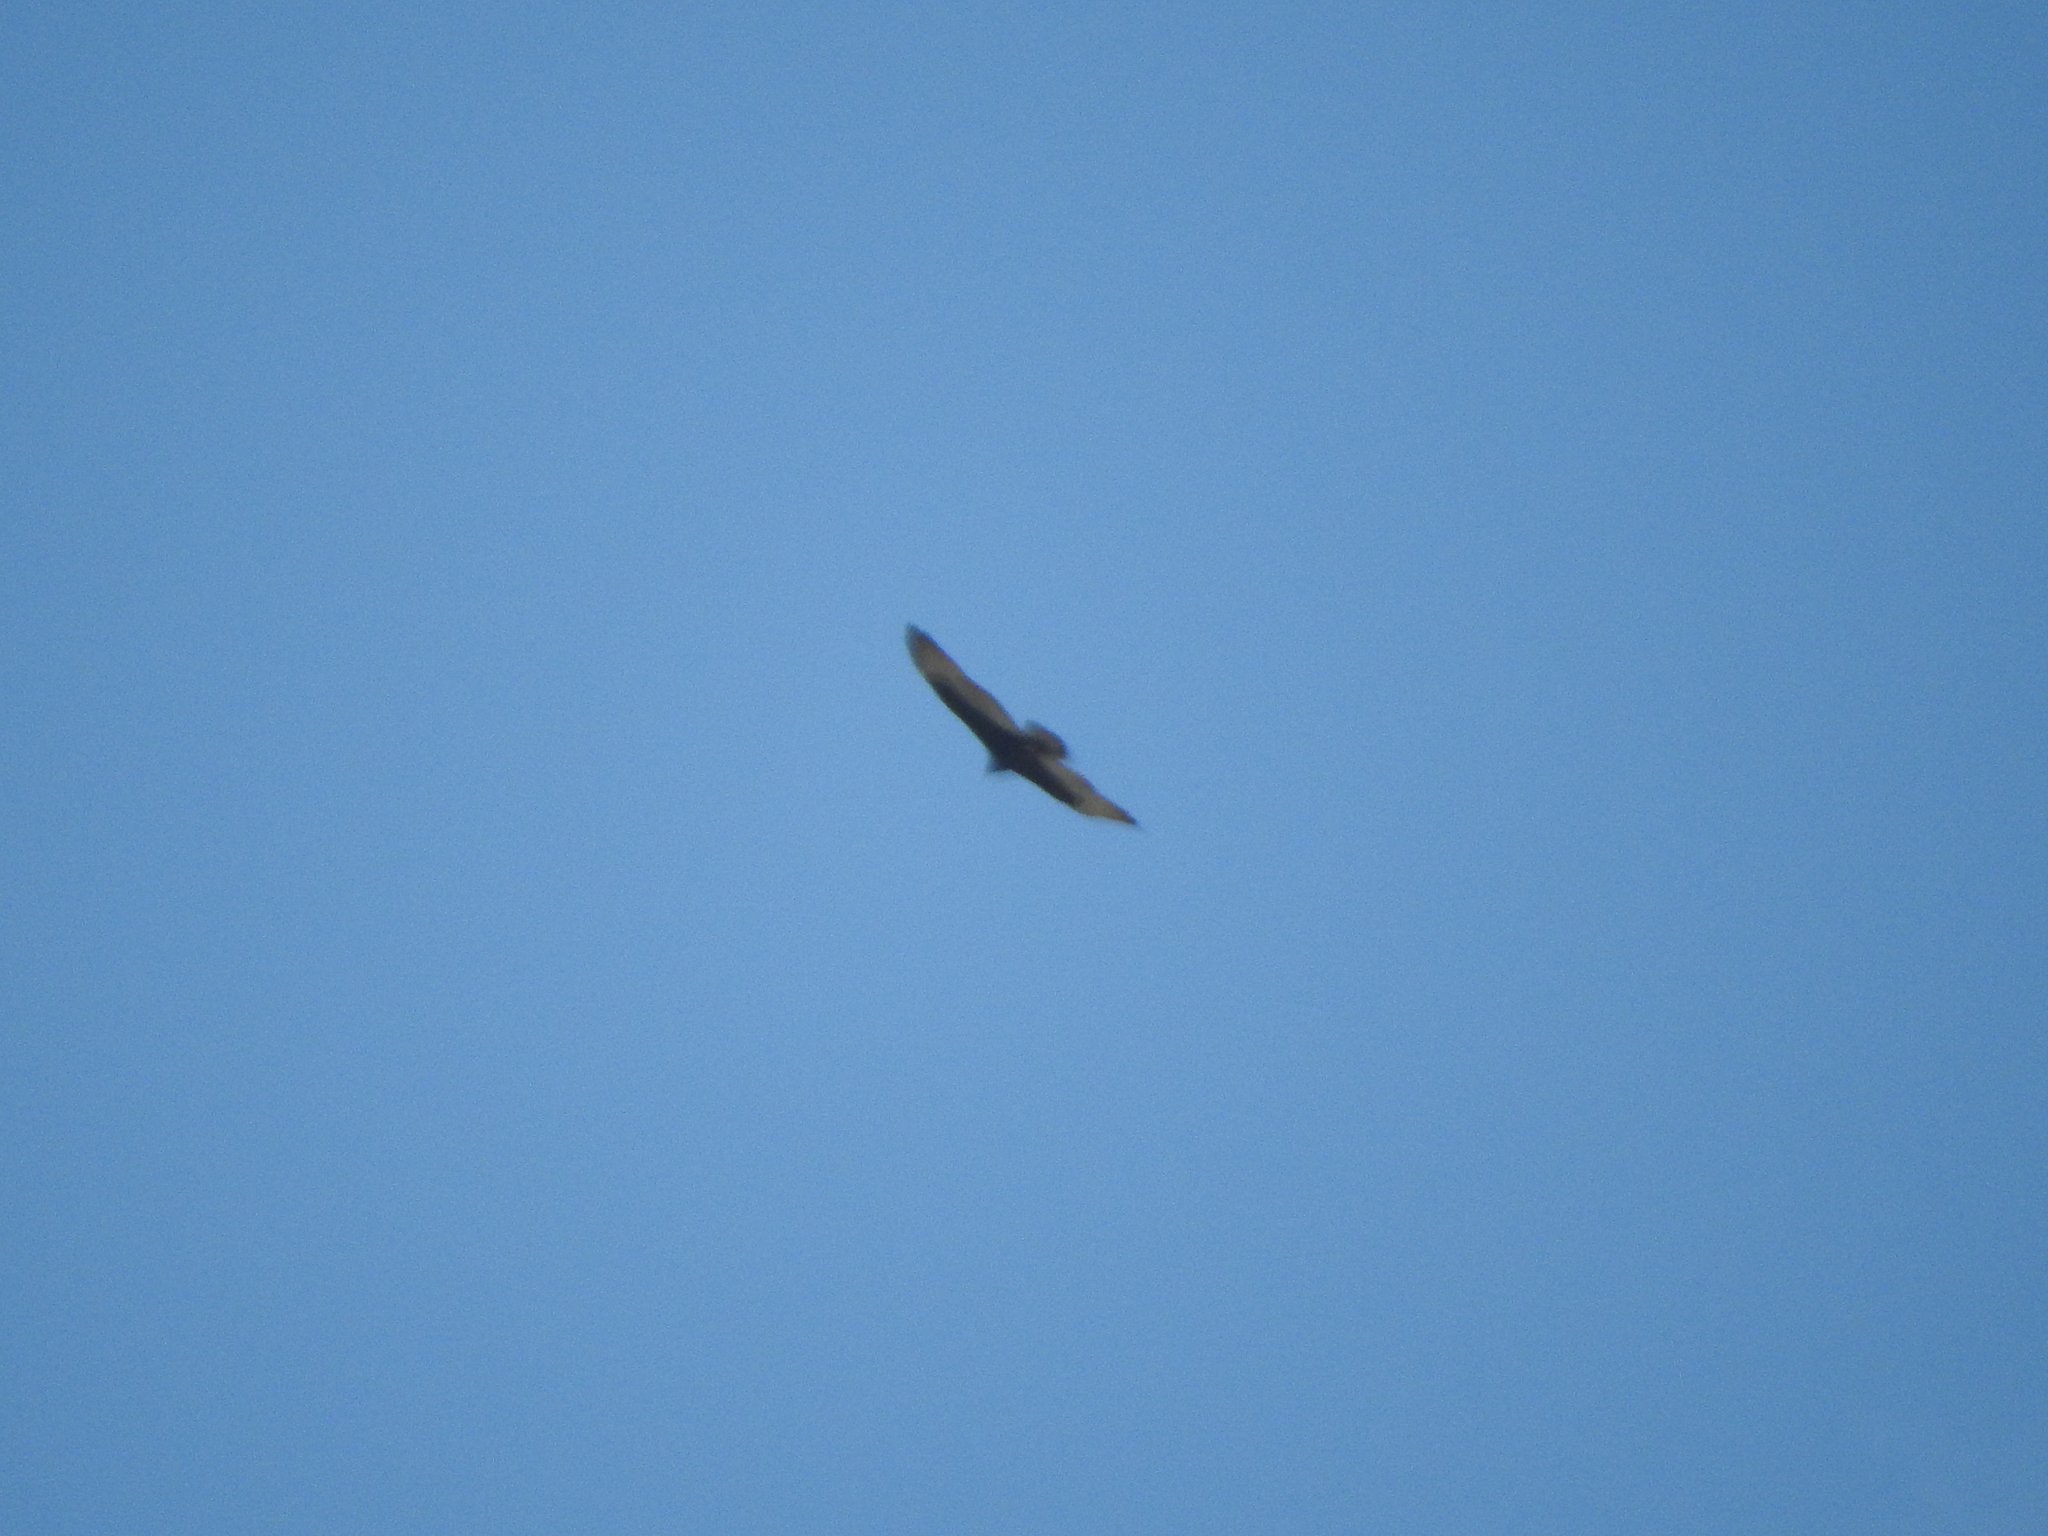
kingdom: Animalia
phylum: Chordata
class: Aves
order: Accipitriformes
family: Cathartidae
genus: Cathartes
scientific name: Cathartes aura
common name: Turkey vulture
